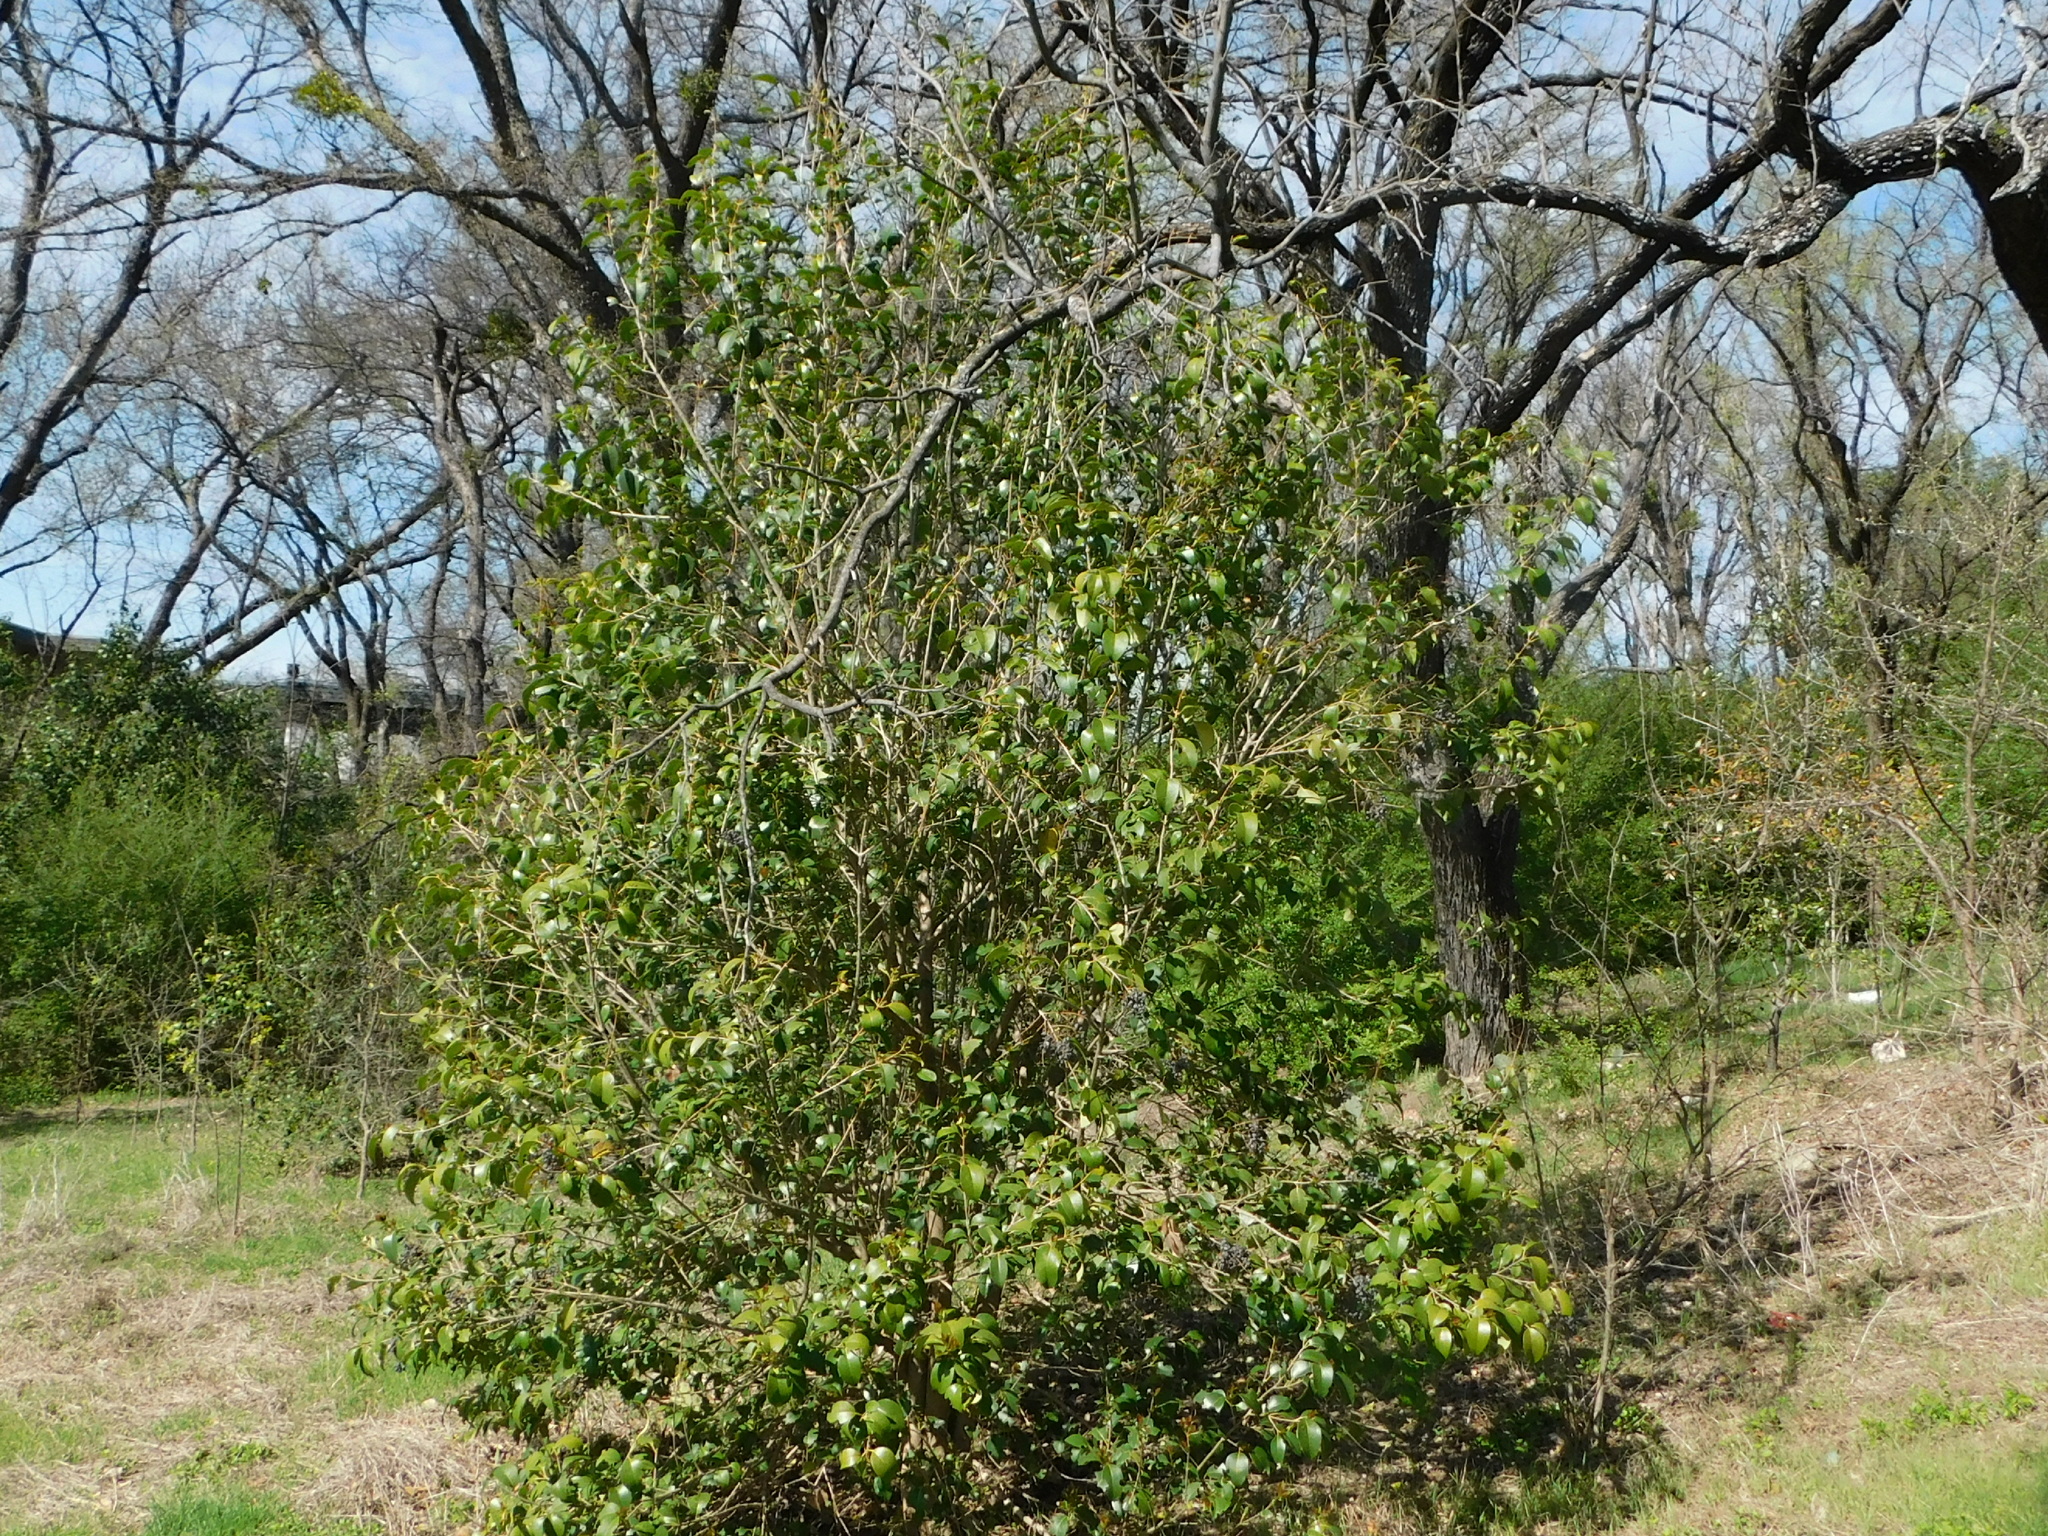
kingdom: Plantae
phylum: Tracheophyta
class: Magnoliopsida
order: Lamiales
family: Oleaceae
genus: Ligustrum
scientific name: Ligustrum lucidum
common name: Glossy privet
